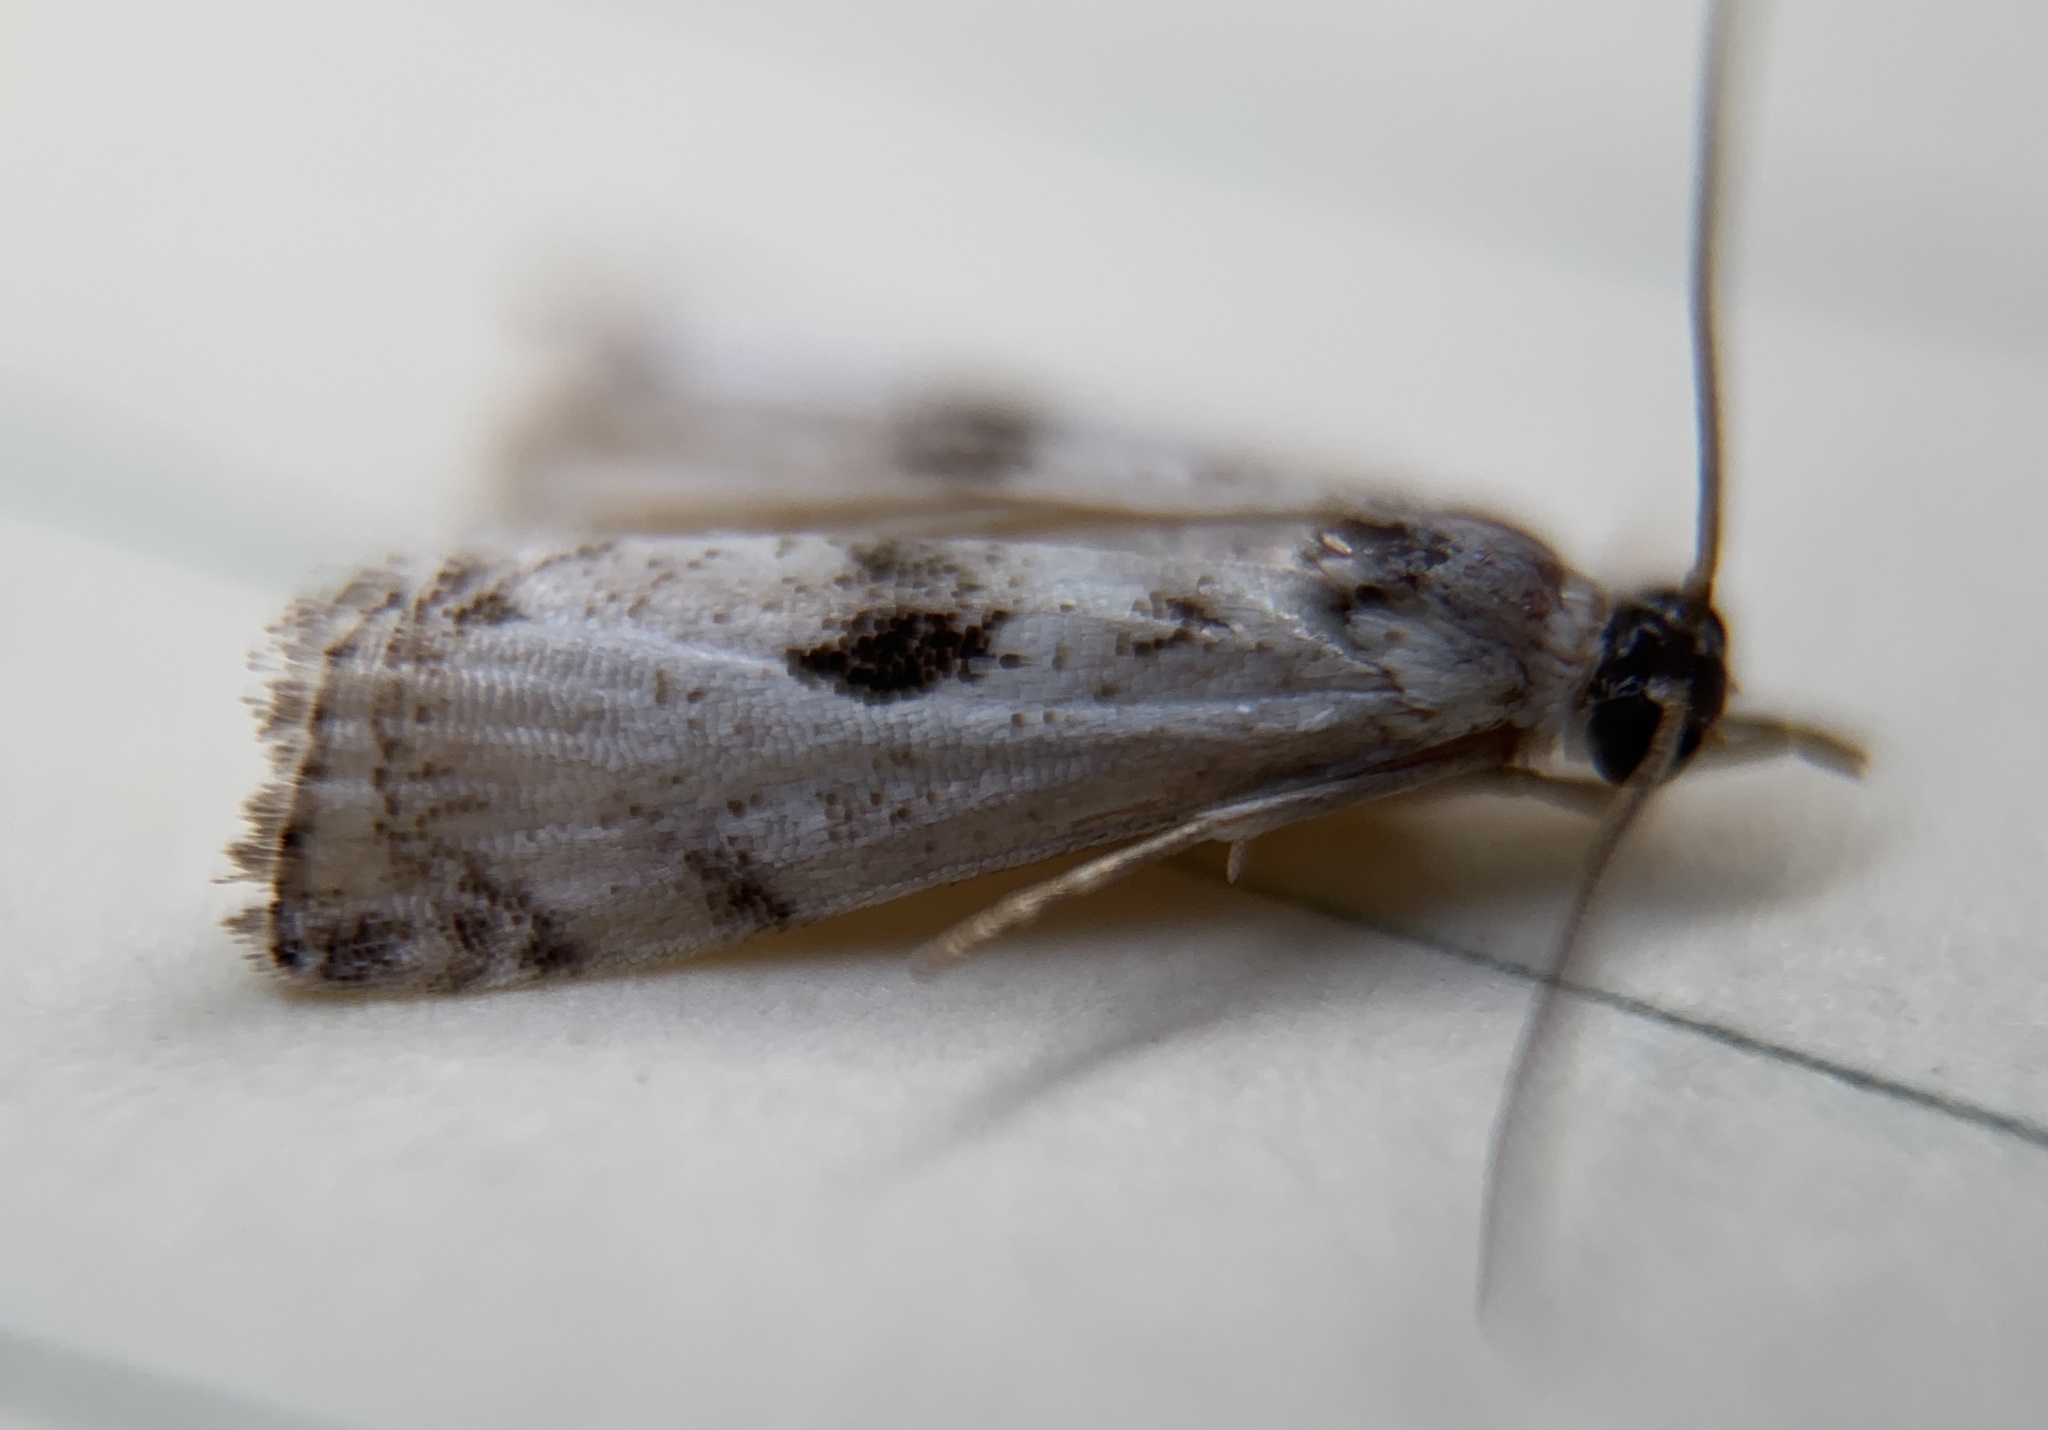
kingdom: Animalia
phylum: Arthropoda
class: Insecta
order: Lepidoptera
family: Crambidae
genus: Microcrambus
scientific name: Microcrambus immunellus
